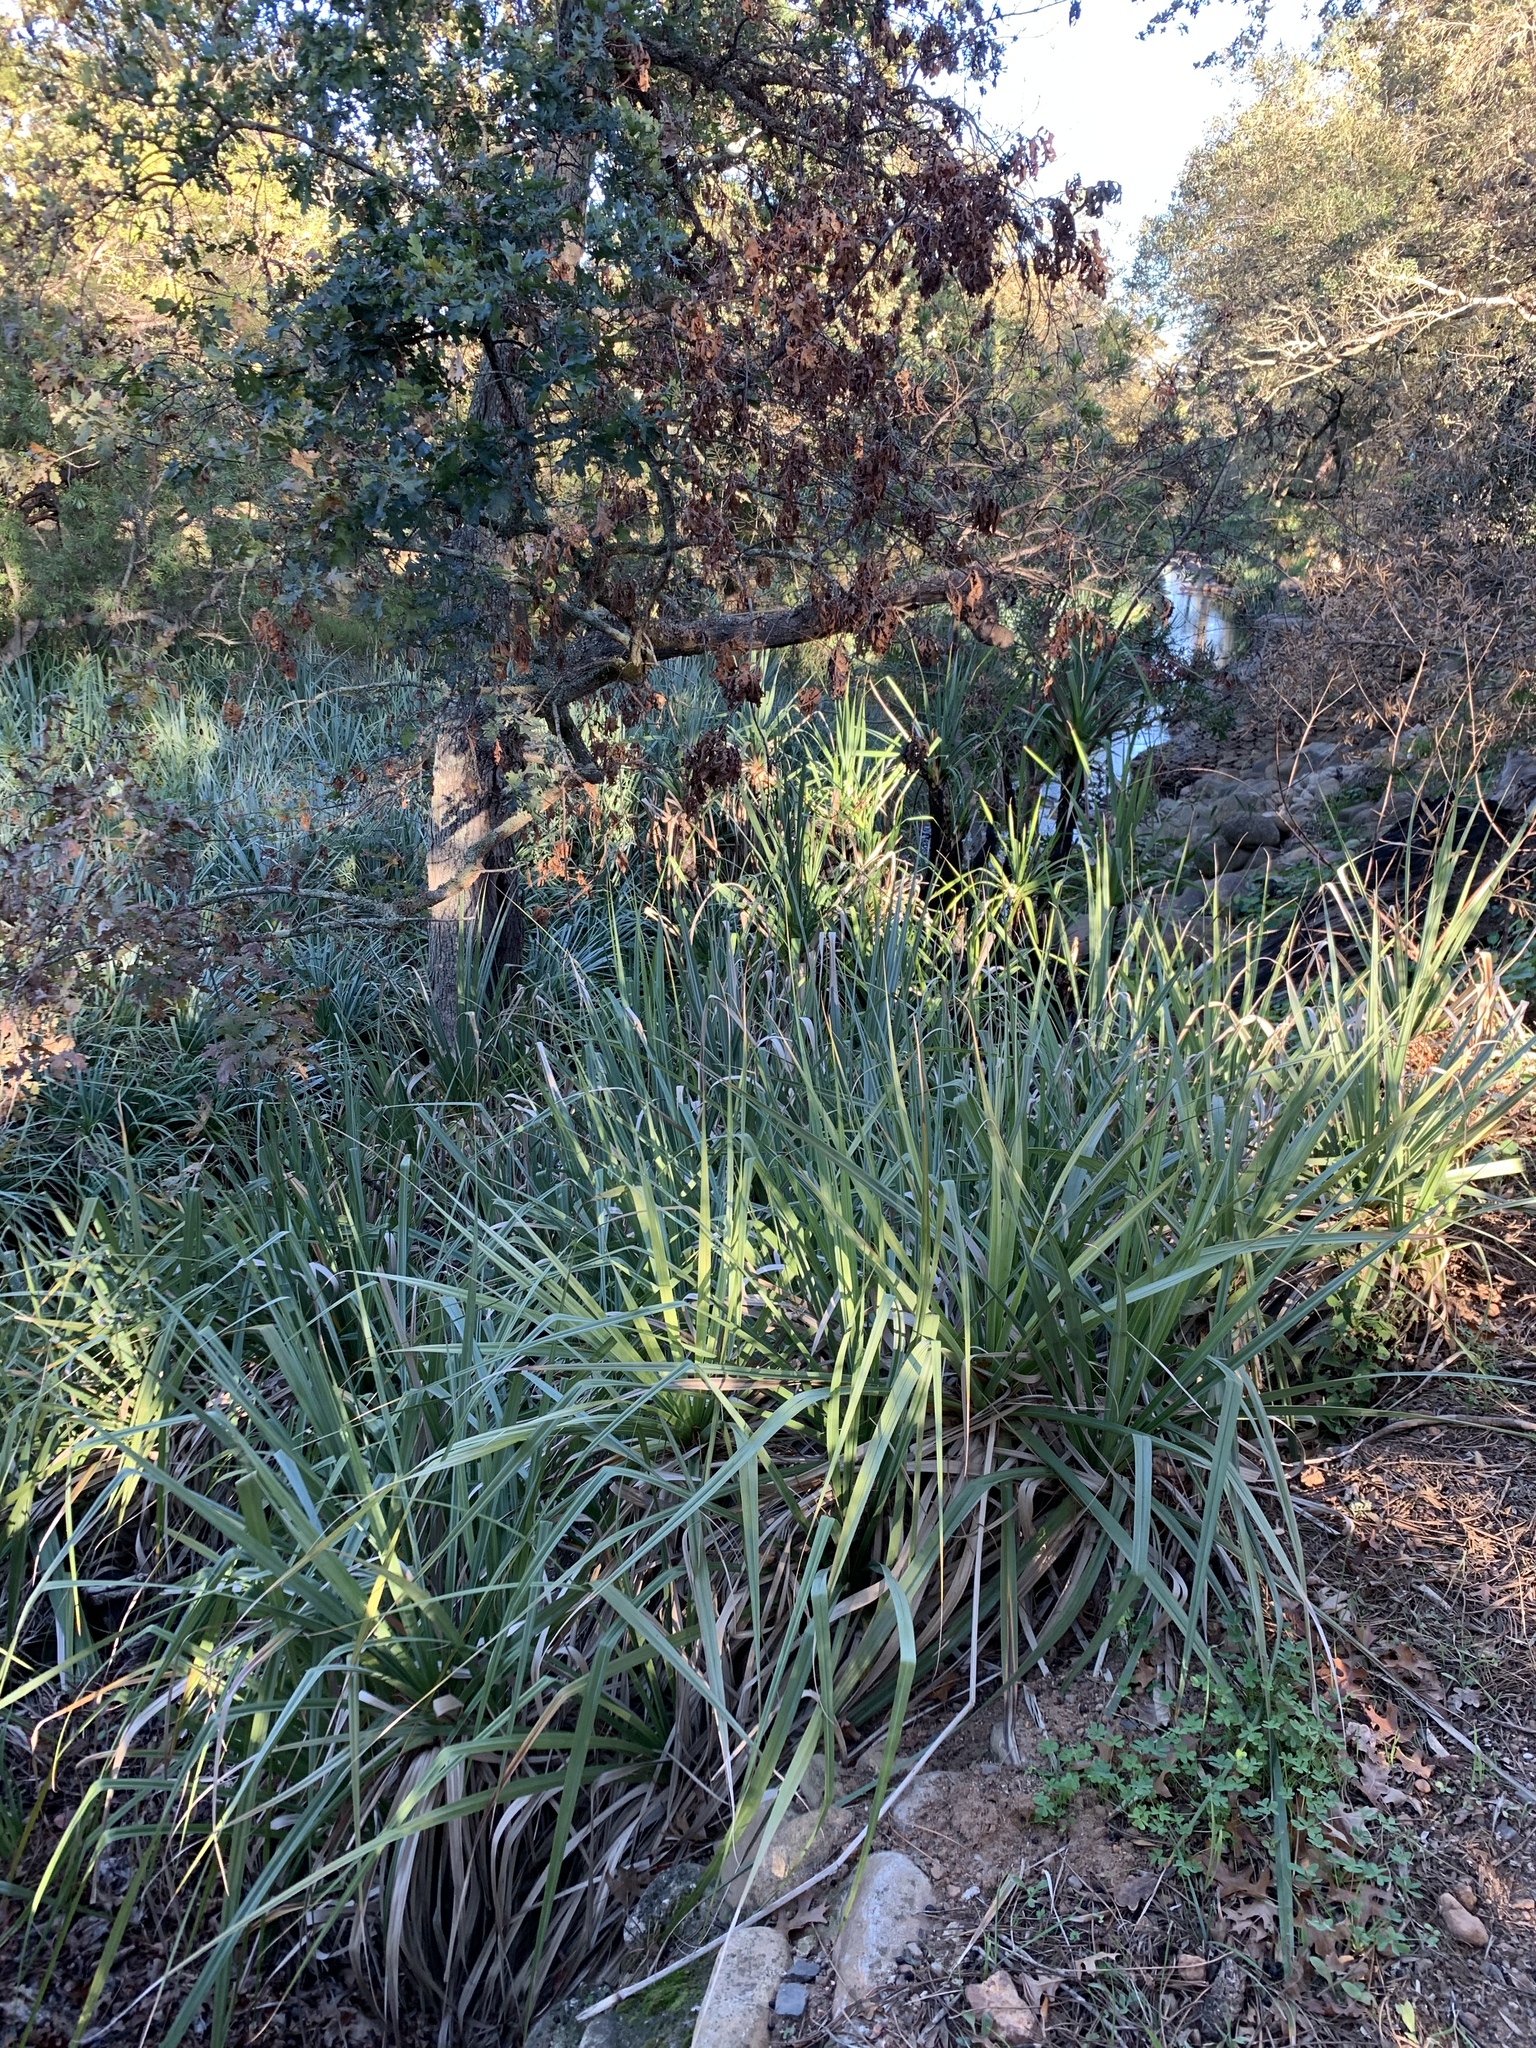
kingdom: Plantae
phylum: Tracheophyta
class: Liliopsida
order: Poales
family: Thurniaceae
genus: Prionium
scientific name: Prionium serratum
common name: Palmiet
